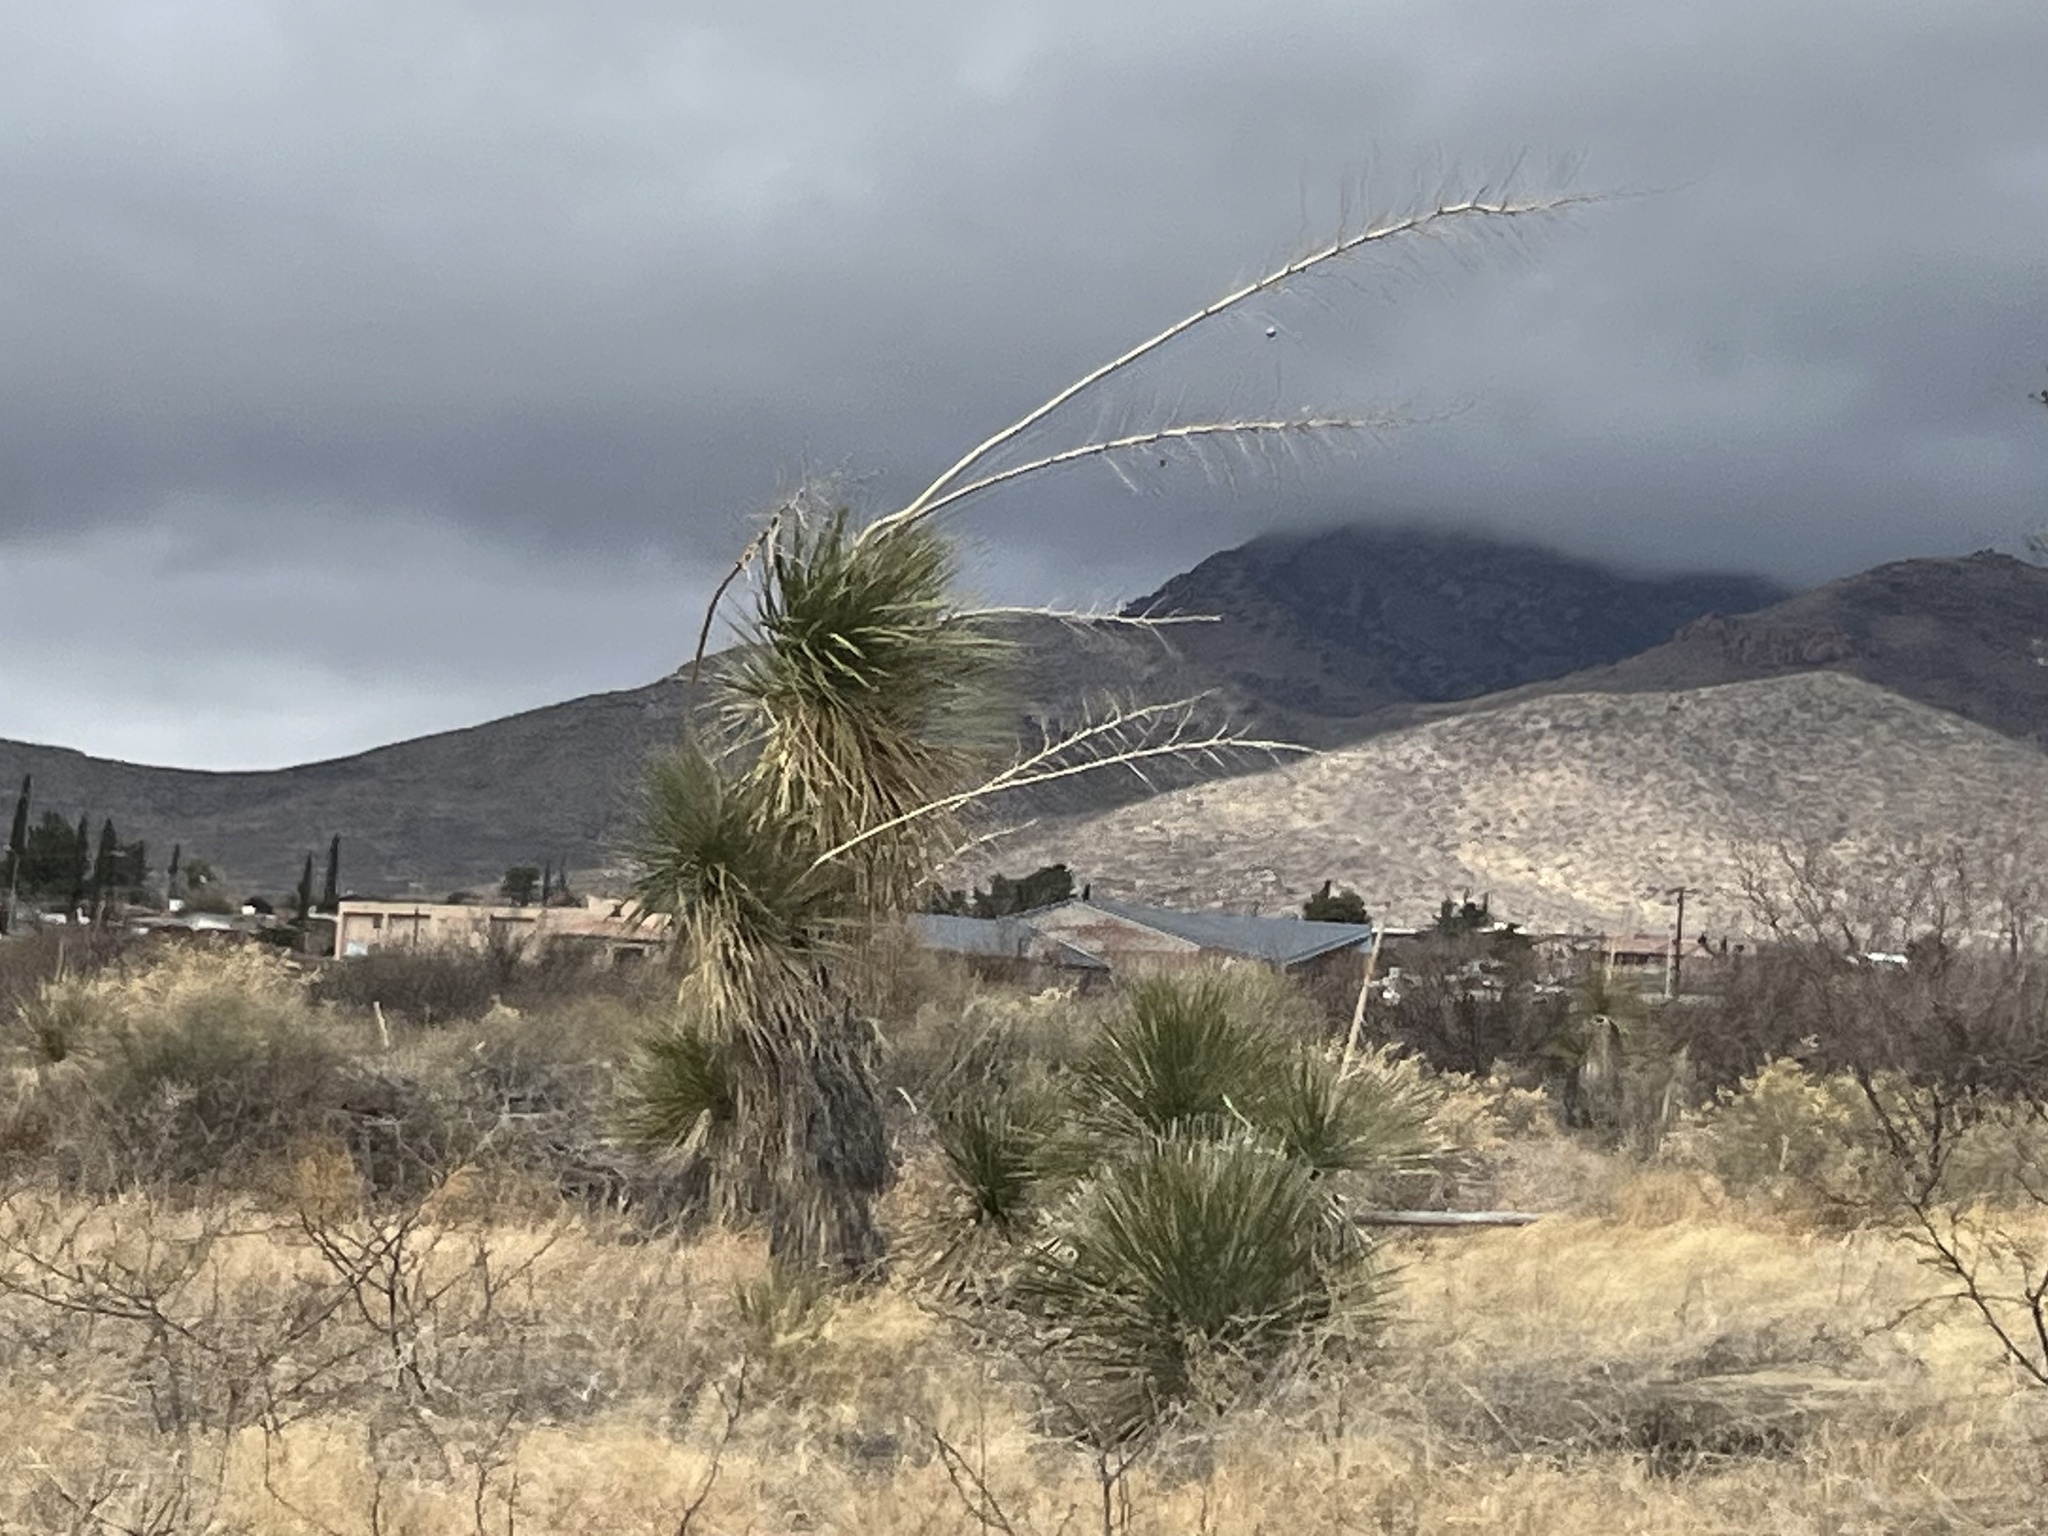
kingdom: Plantae
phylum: Tracheophyta
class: Liliopsida
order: Asparagales
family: Asparagaceae
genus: Yucca
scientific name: Yucca elata
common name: Palmella
